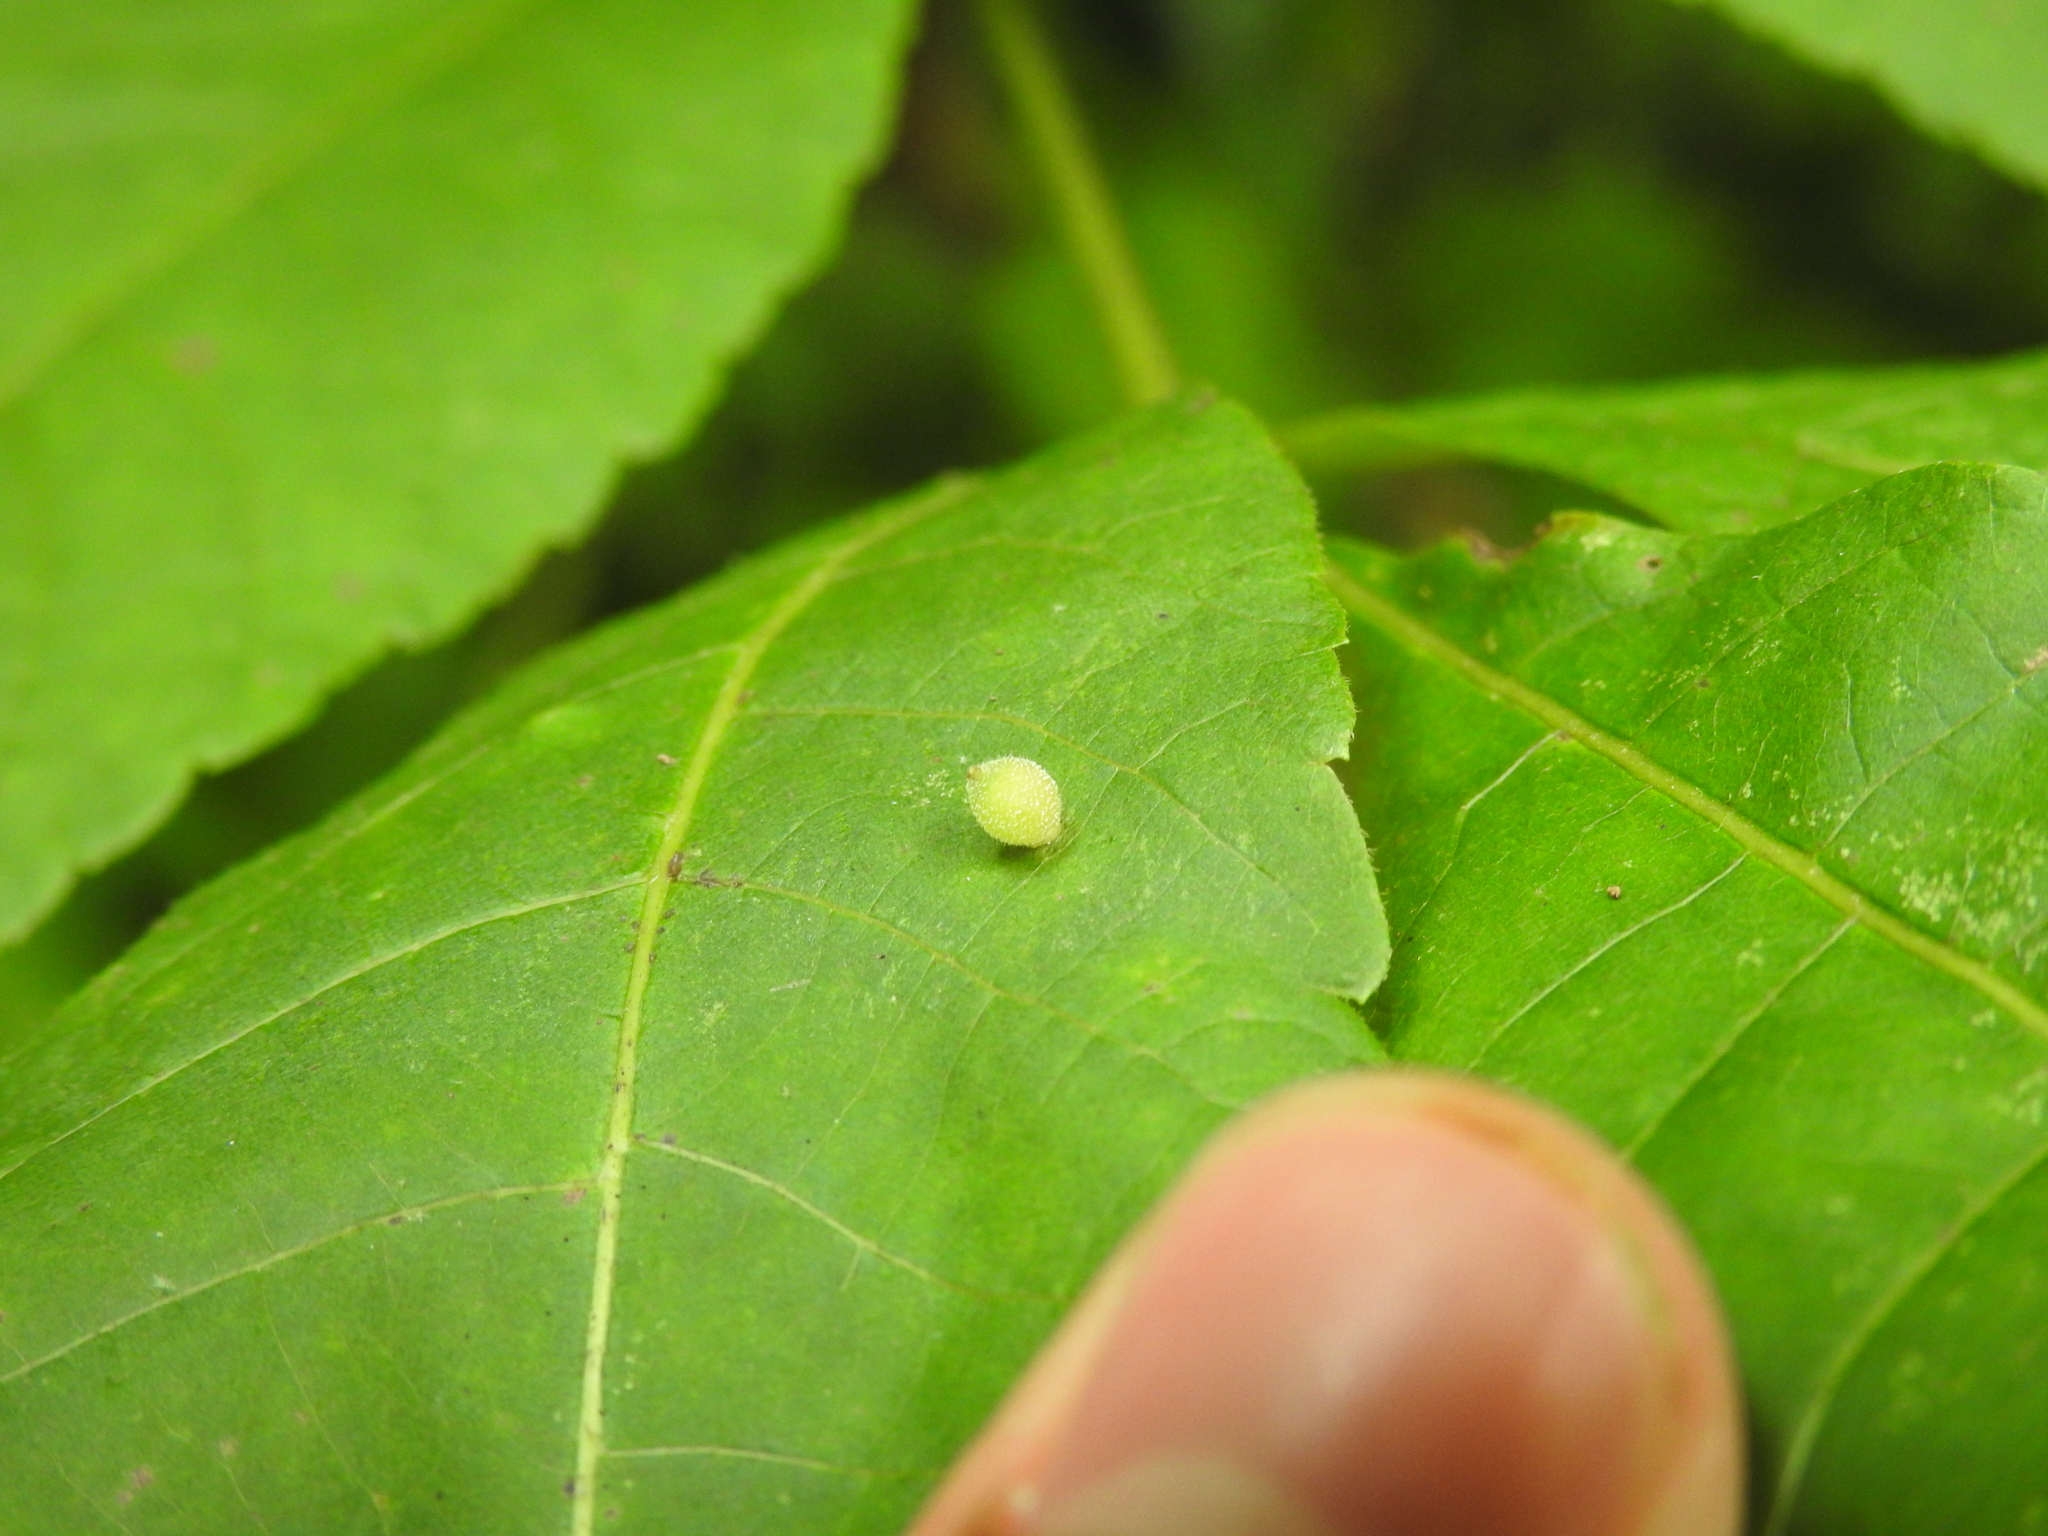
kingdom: Animalia
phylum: Arthropoda
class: Insecta
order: Diptera
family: Cecidomyiidae
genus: Caryomyia
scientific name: Caryomyia viscidolium
